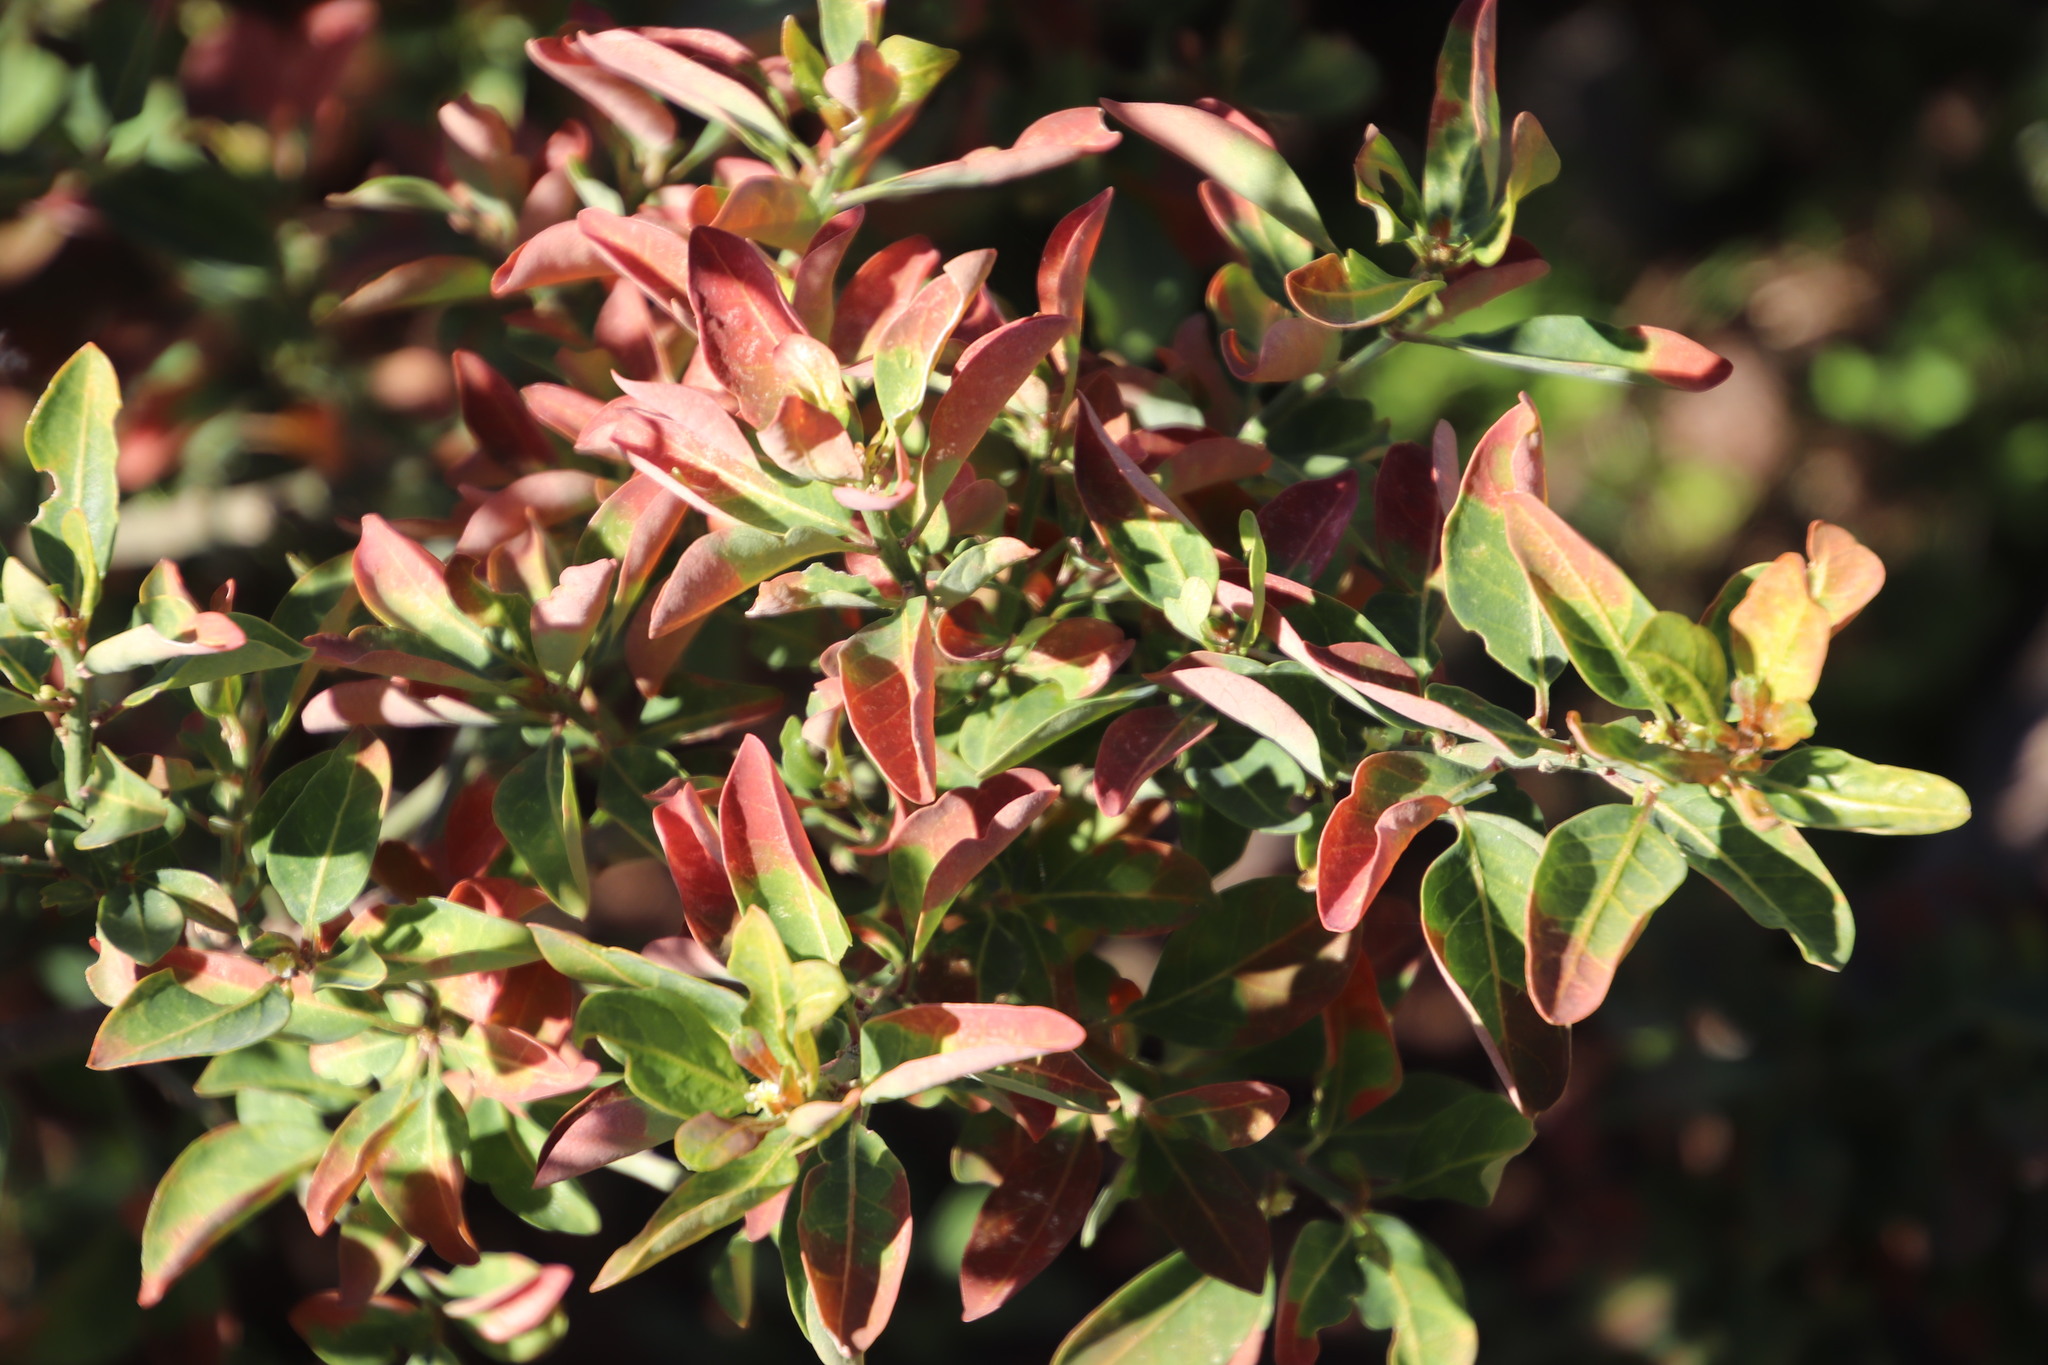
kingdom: Plantae
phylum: Tracheophyta
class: Magnoliopsida
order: Malpighiales
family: Peraceae
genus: Clutia
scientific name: Clutia pulchella
